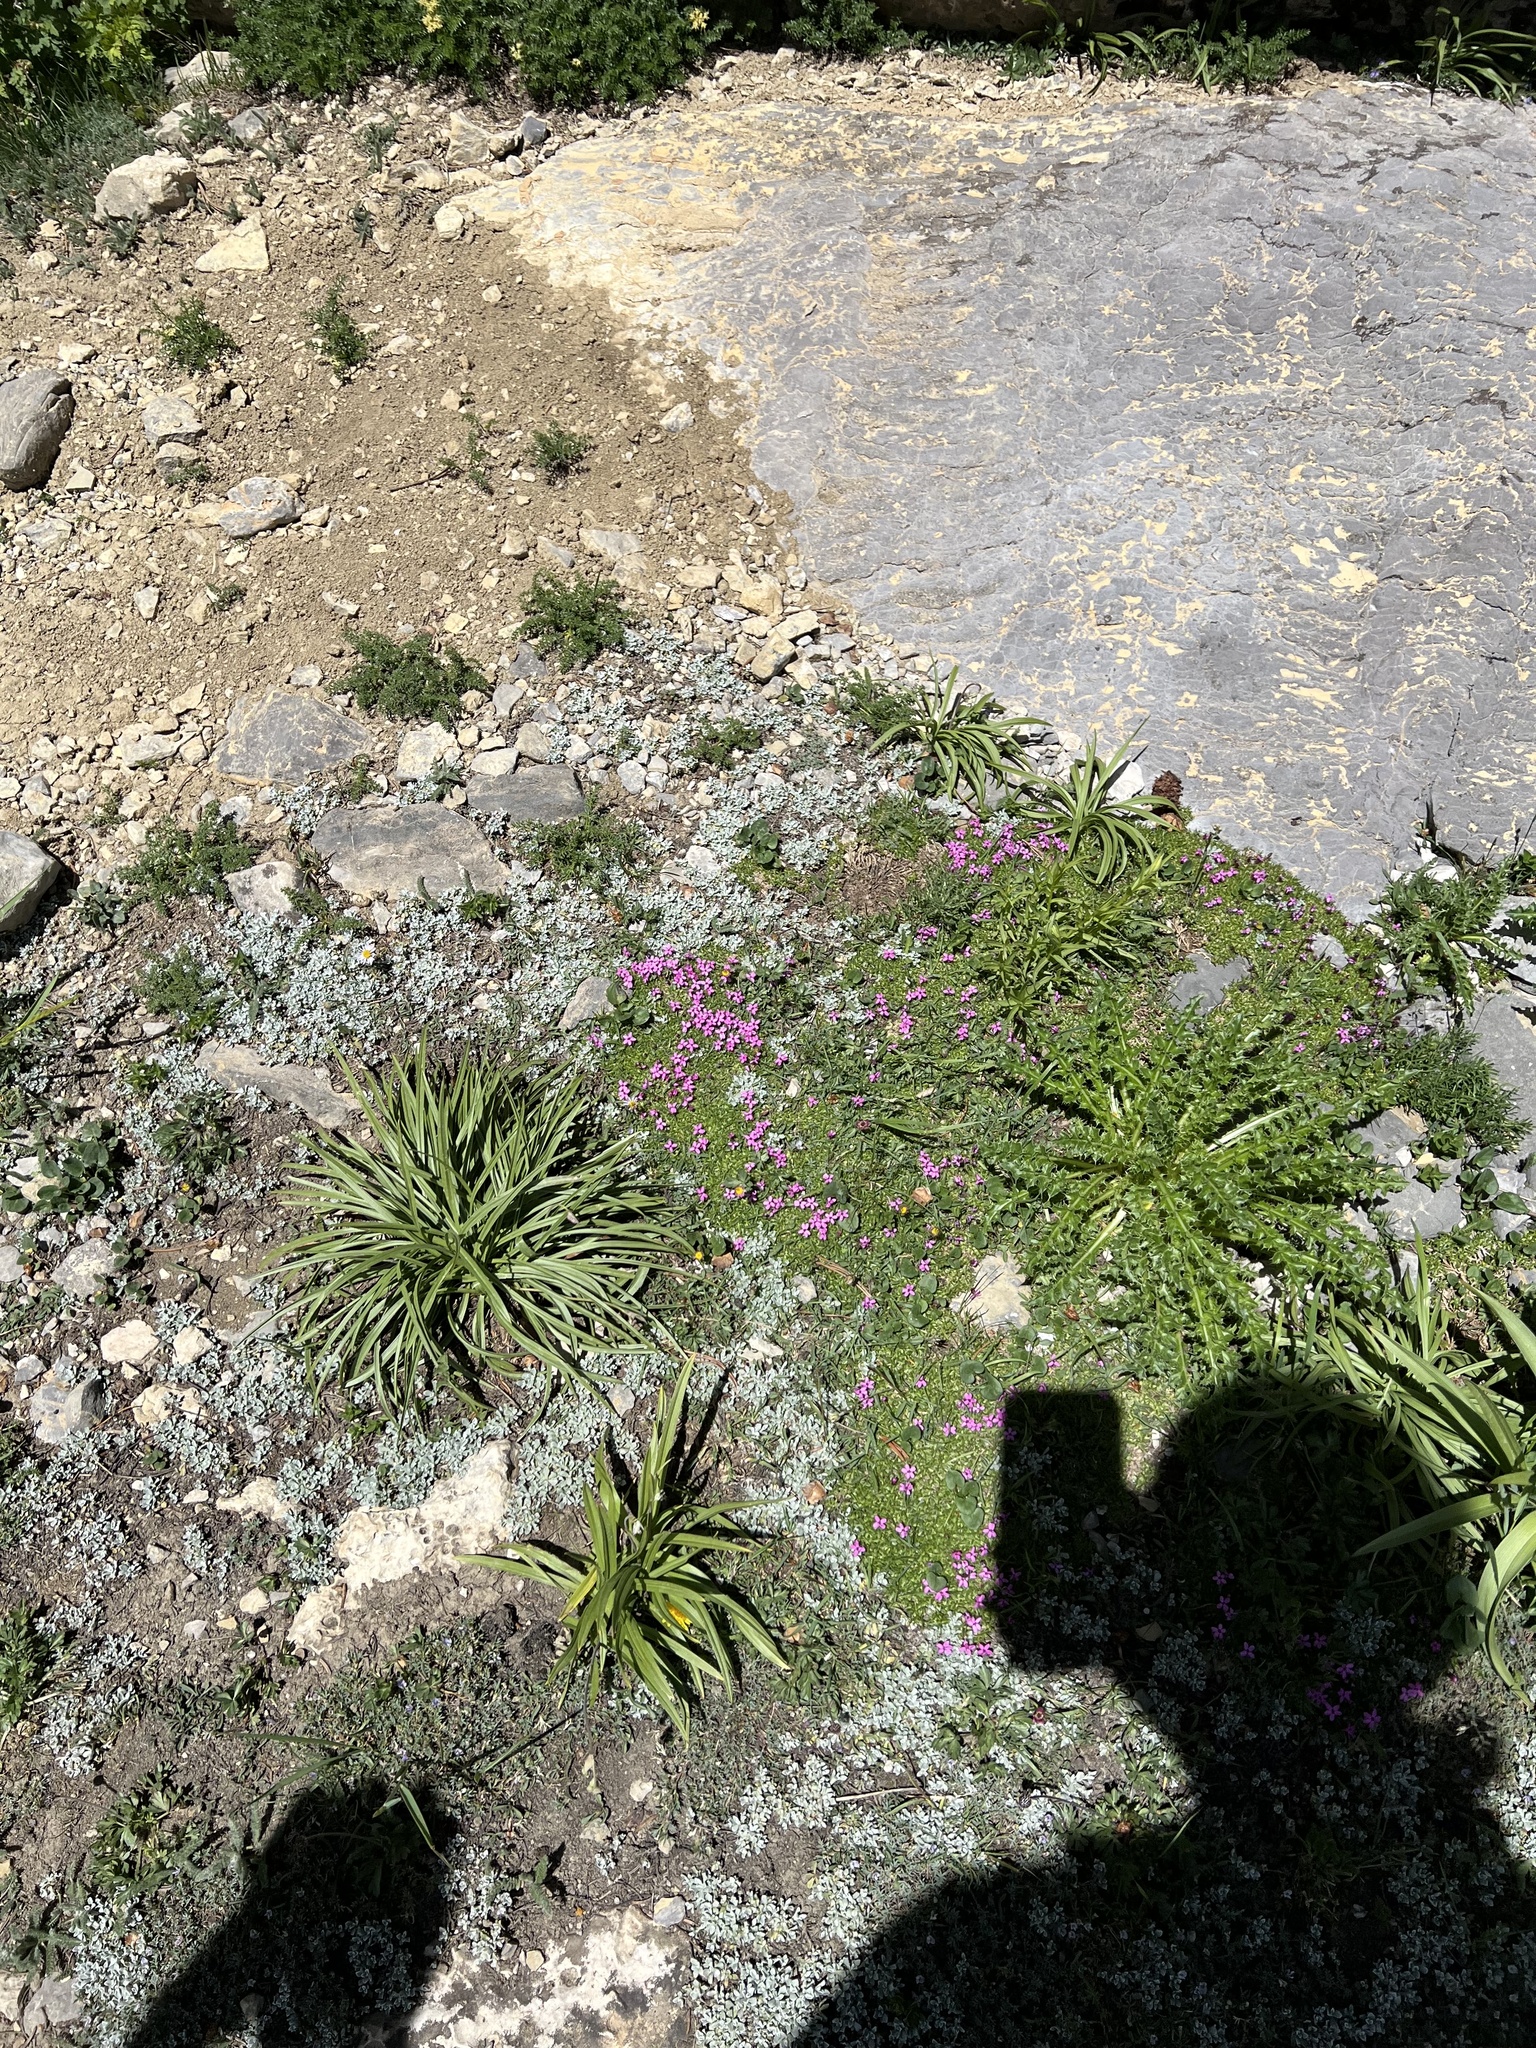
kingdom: Plantae
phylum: Tracheophyta
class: Magnoliopsida
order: Caryophyllales
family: Caryophyllaceae
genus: Silene
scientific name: Silene acaulis
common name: Moss campion
